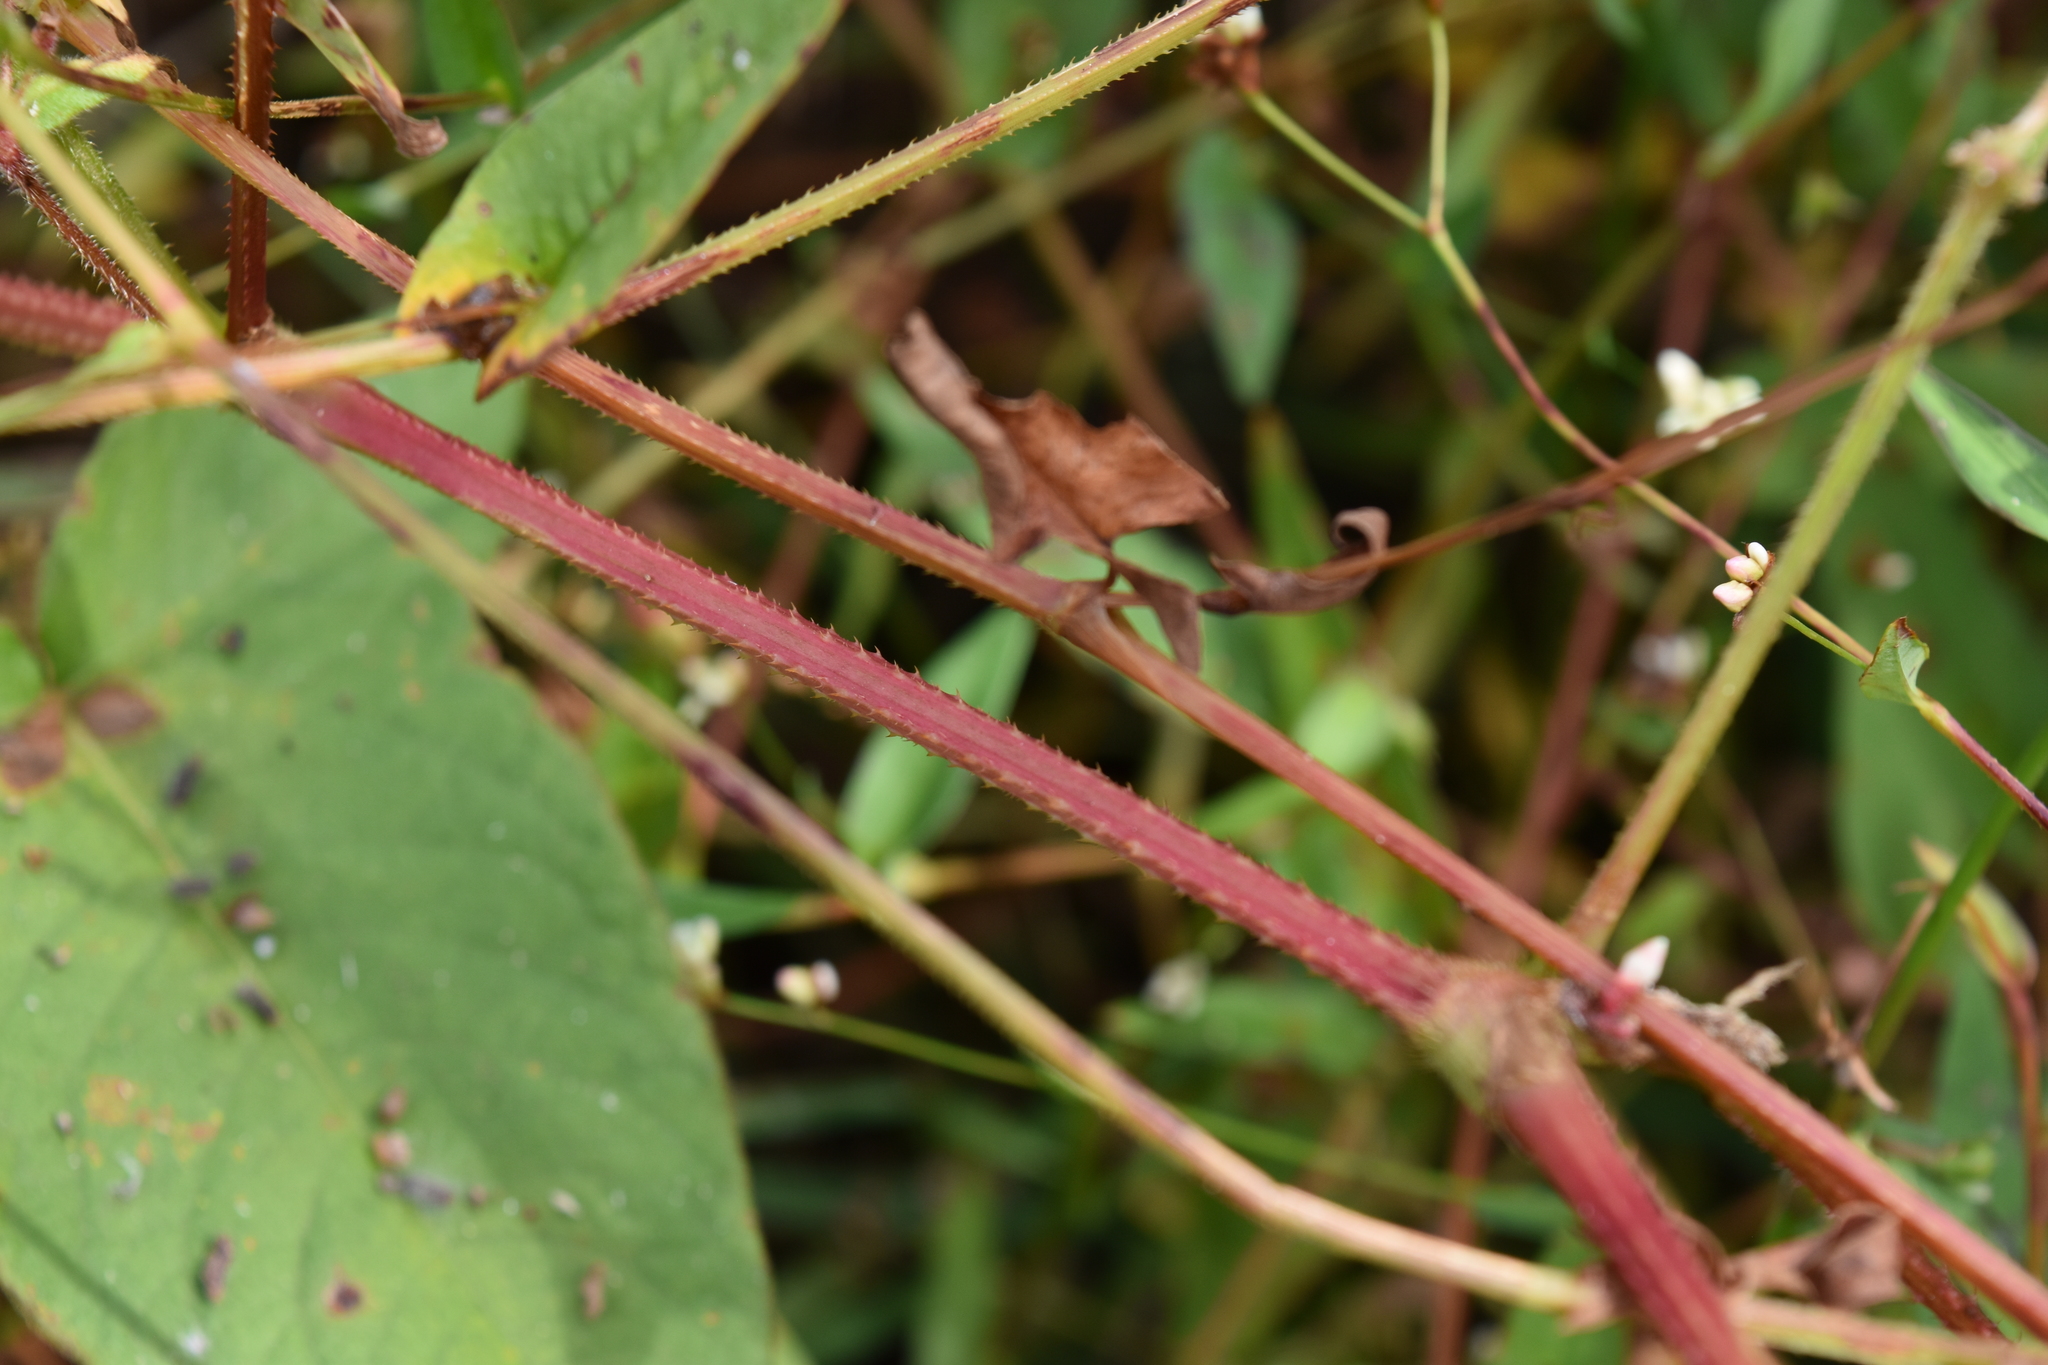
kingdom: Plantae
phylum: Tracheophyta
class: Magnoliopsida
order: Caryophyllales
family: Polygonaceae
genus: Persicaria
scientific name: Persicaria sagittata
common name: American tearthumb
